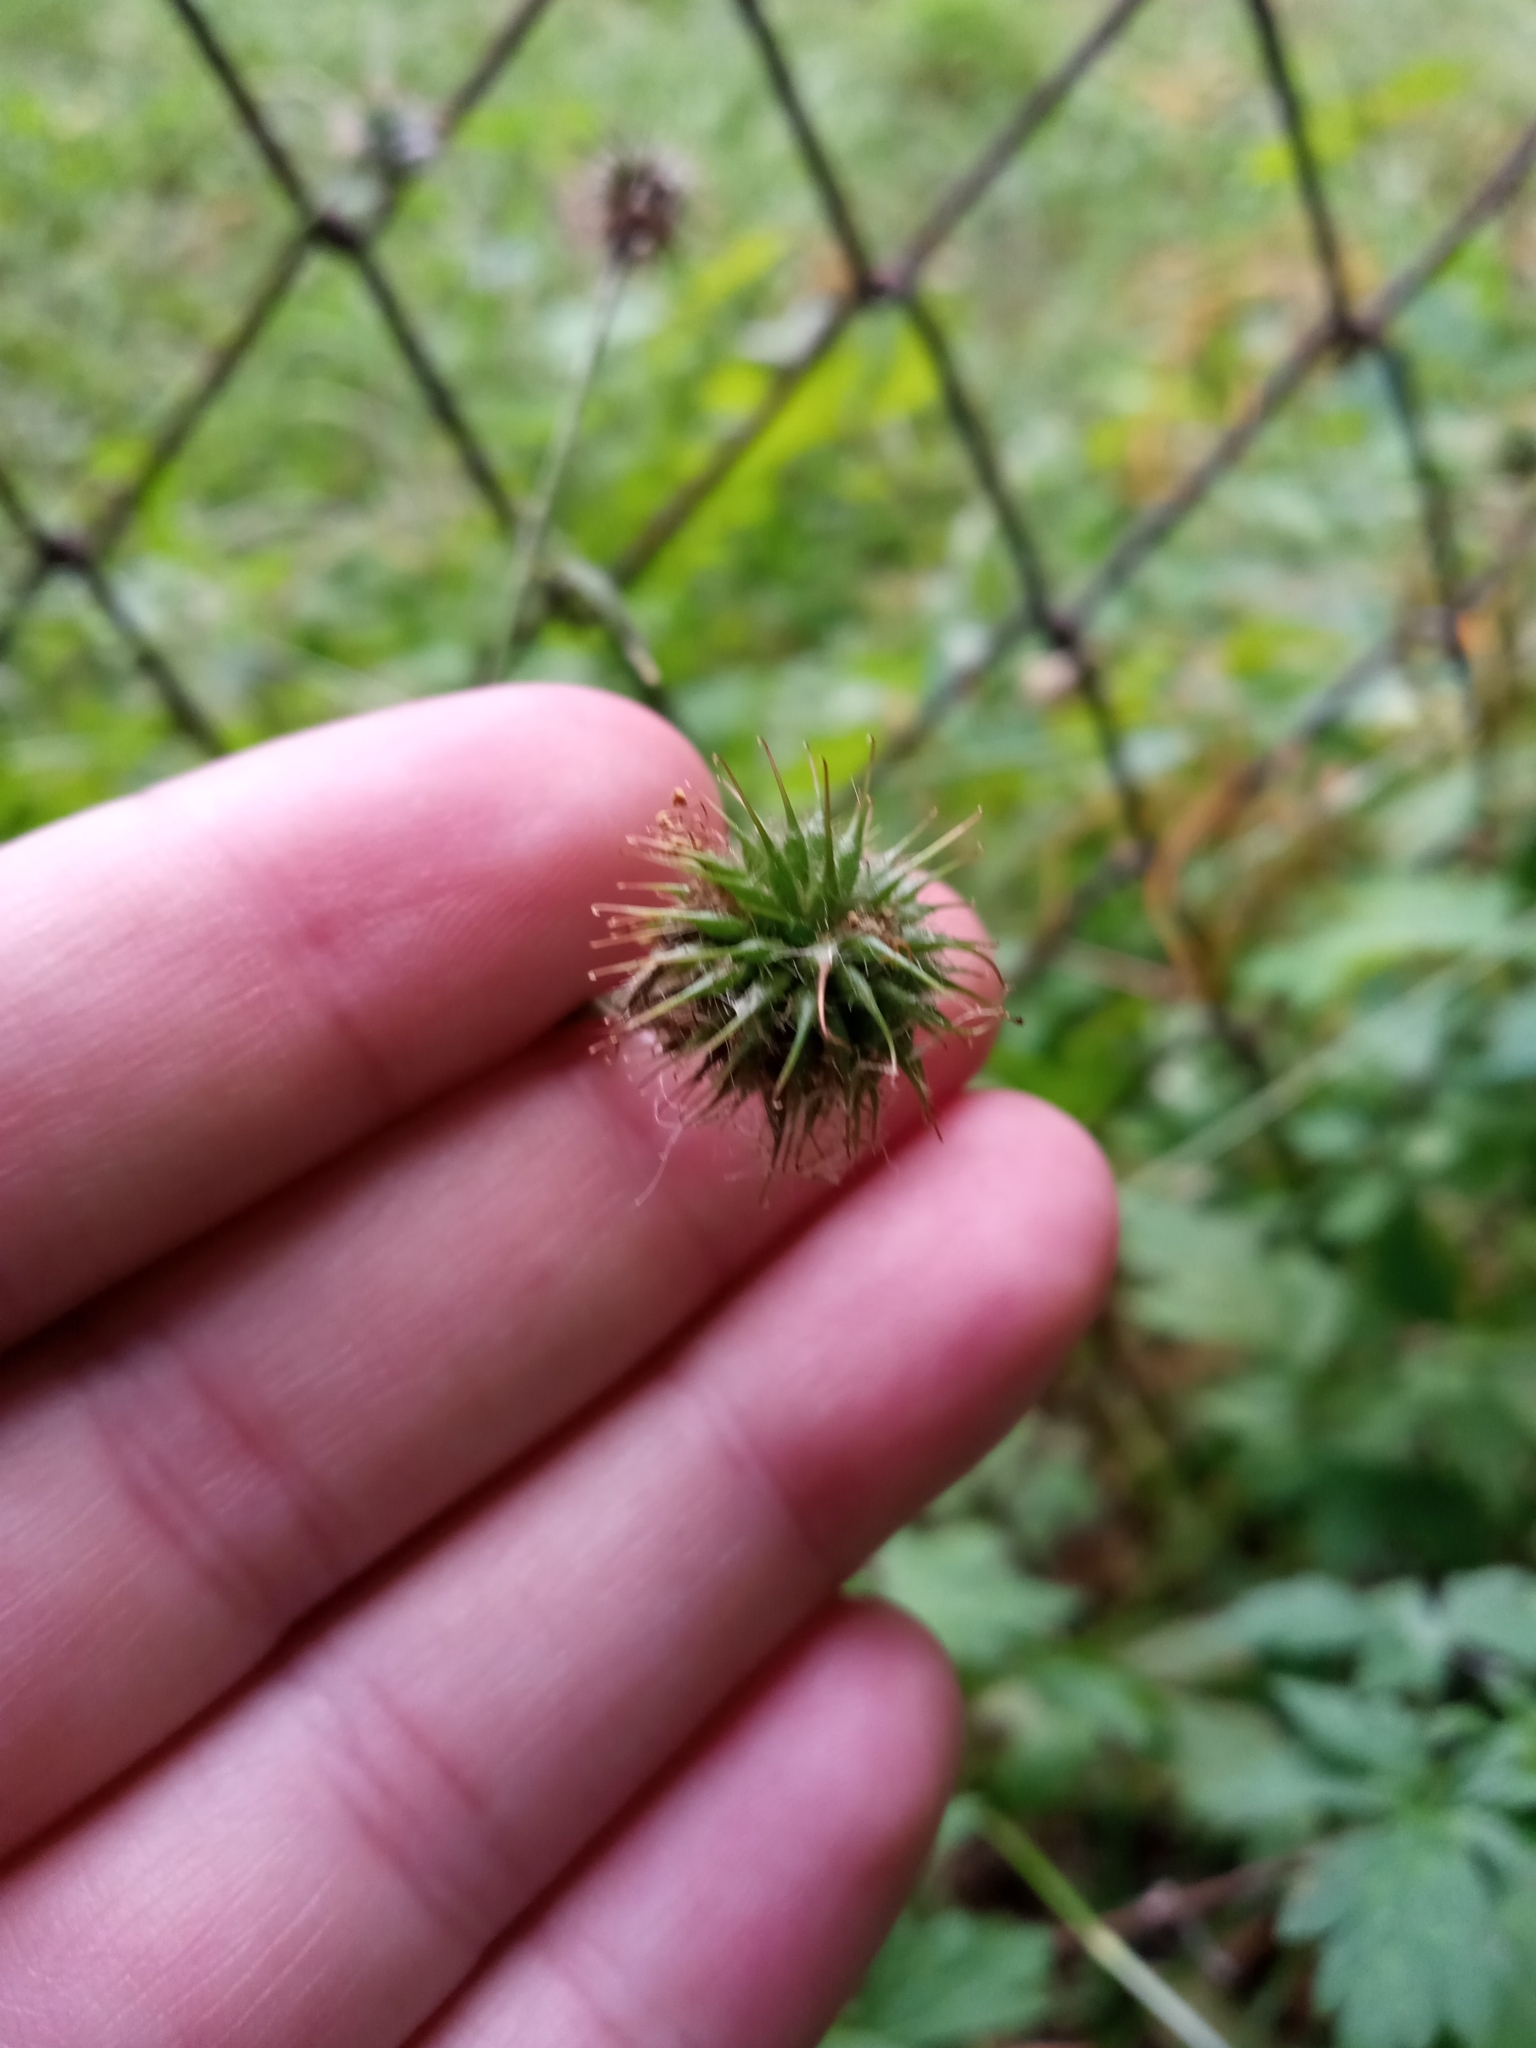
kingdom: Plantae
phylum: Tracheophyta
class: Magnoliopsida
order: Rosales
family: Rosaceae
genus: Geum
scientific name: Geum urbanum
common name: Wood avens
